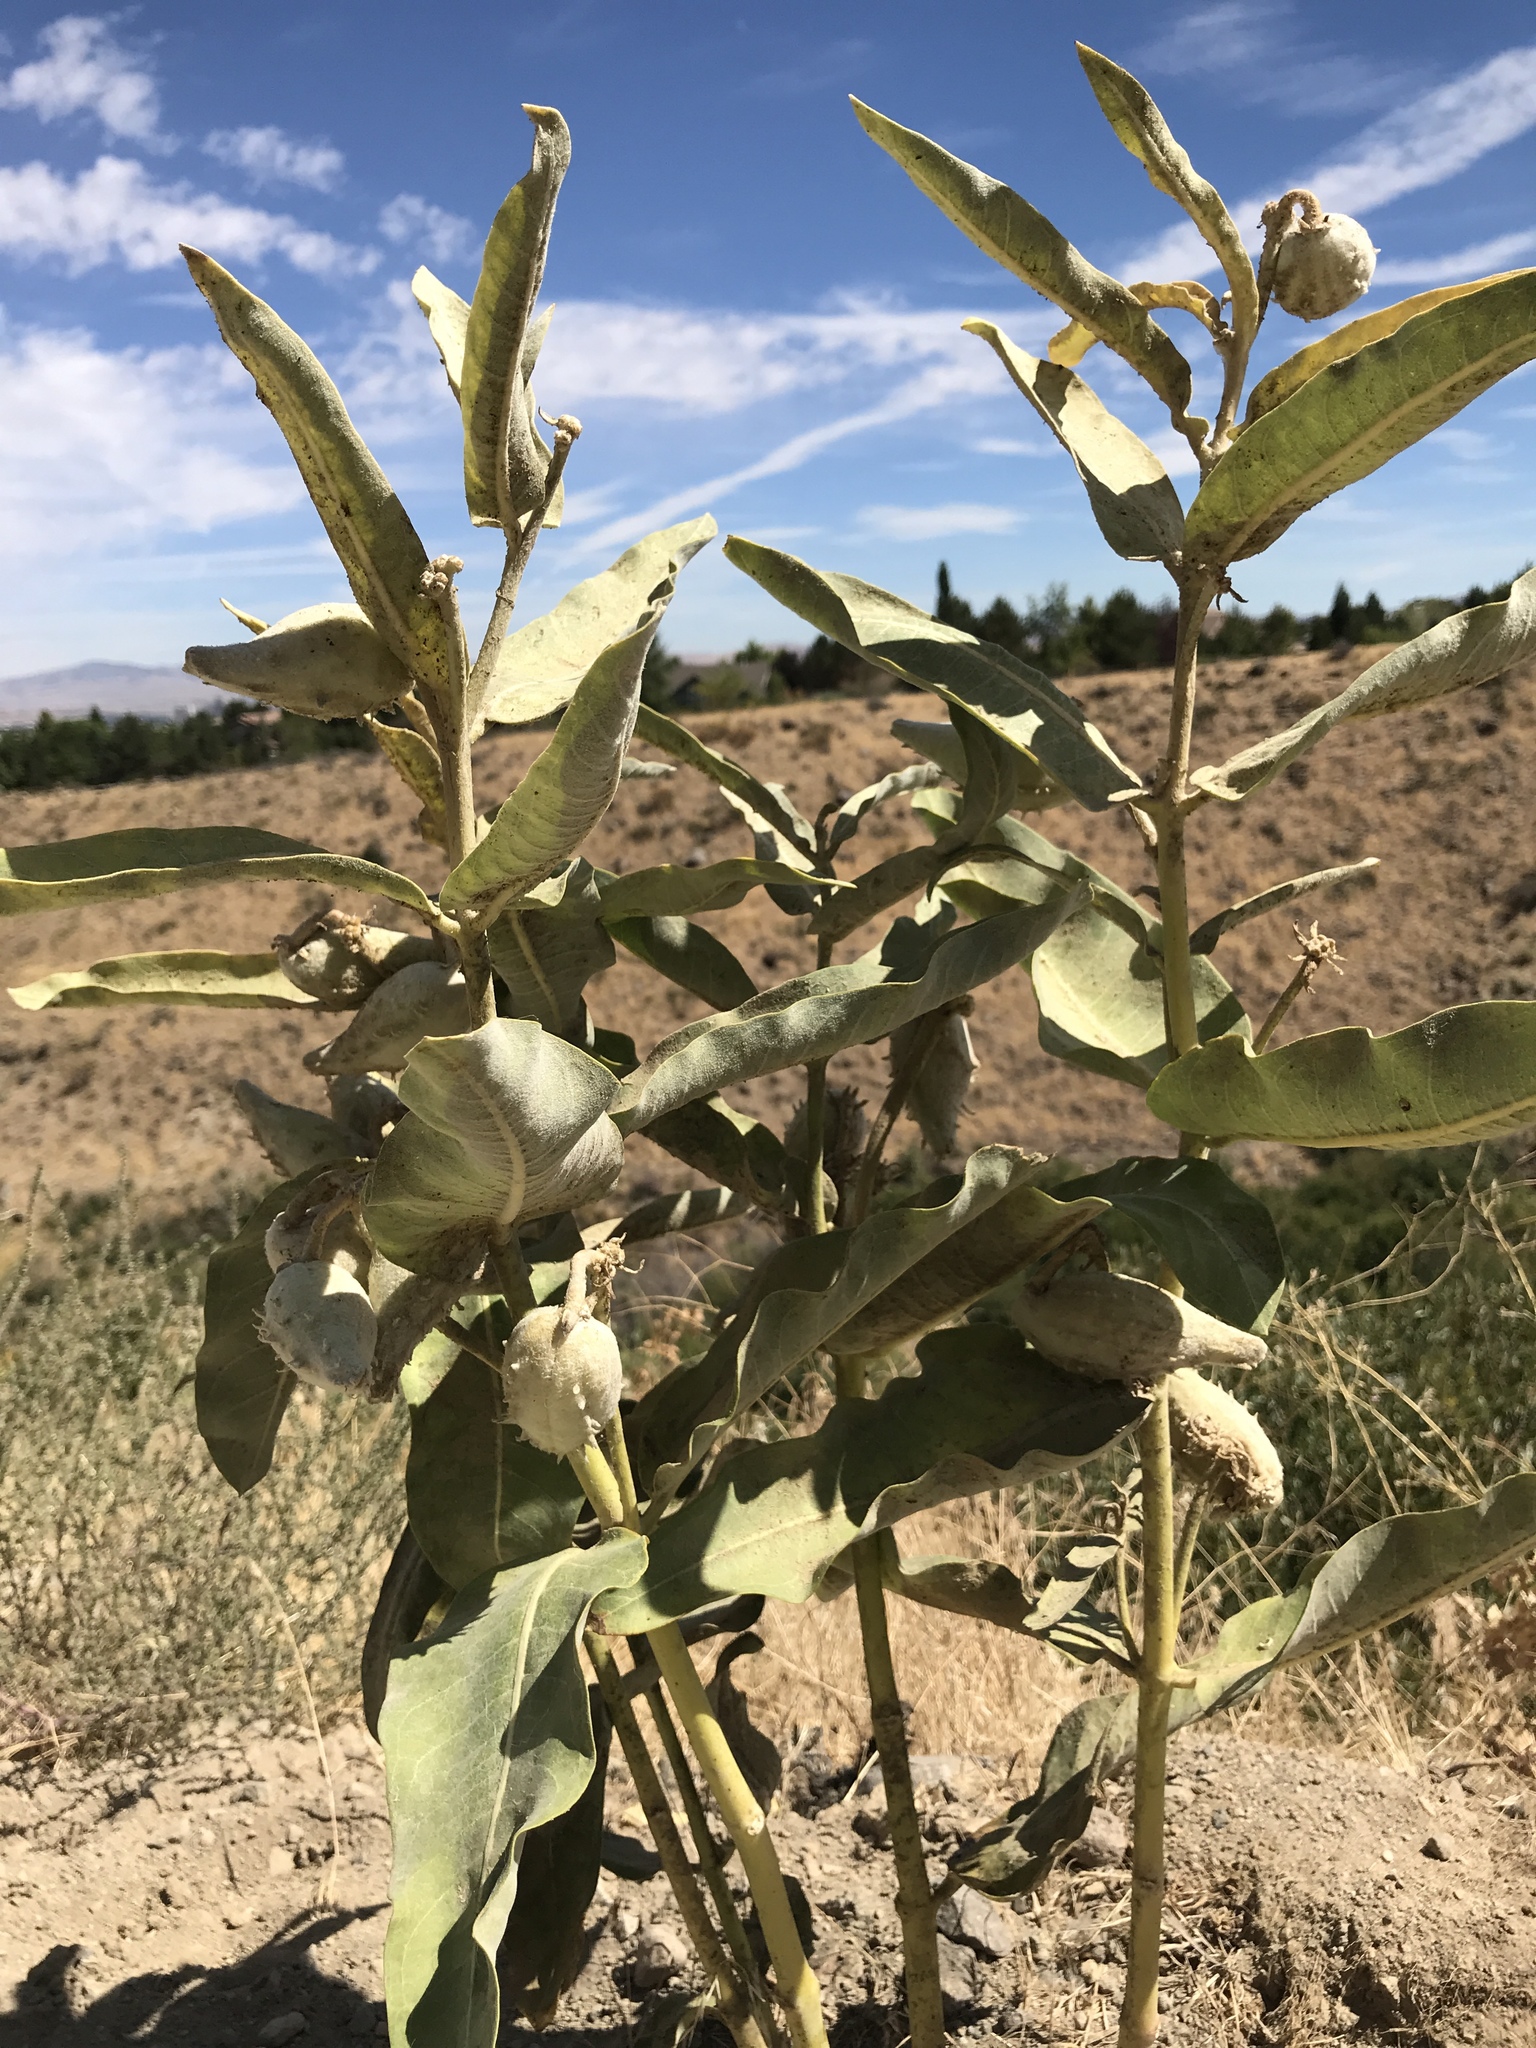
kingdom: Plantae
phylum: Tracheophyta
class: Magnoliopsida
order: Gentianales
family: Apocynaceae
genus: Asclepias
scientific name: Asclepias speciosa
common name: Showy milkweed
